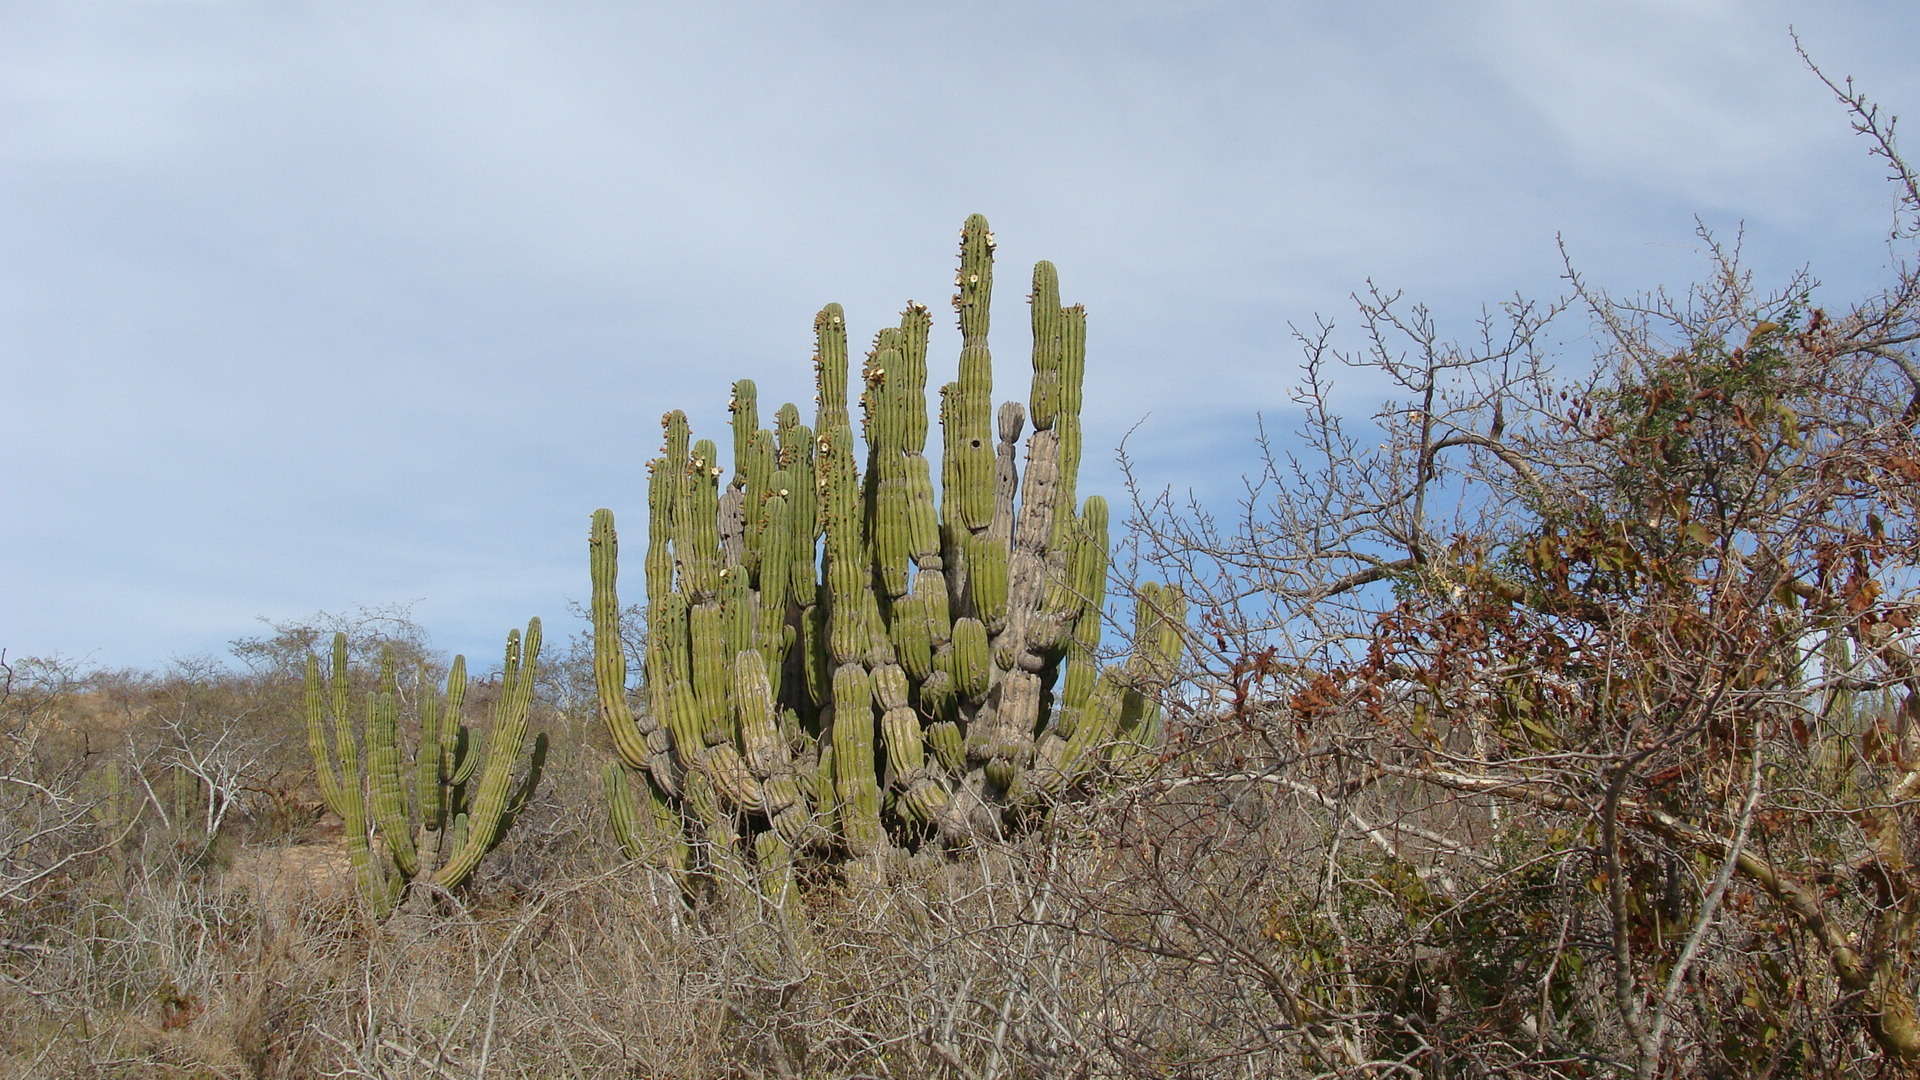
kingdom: Plantae
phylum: Tracheophyta
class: Magnoliopsida
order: Caryophyllales
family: Cactaceae
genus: Pachycereus
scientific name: Pachycereus pringlei
